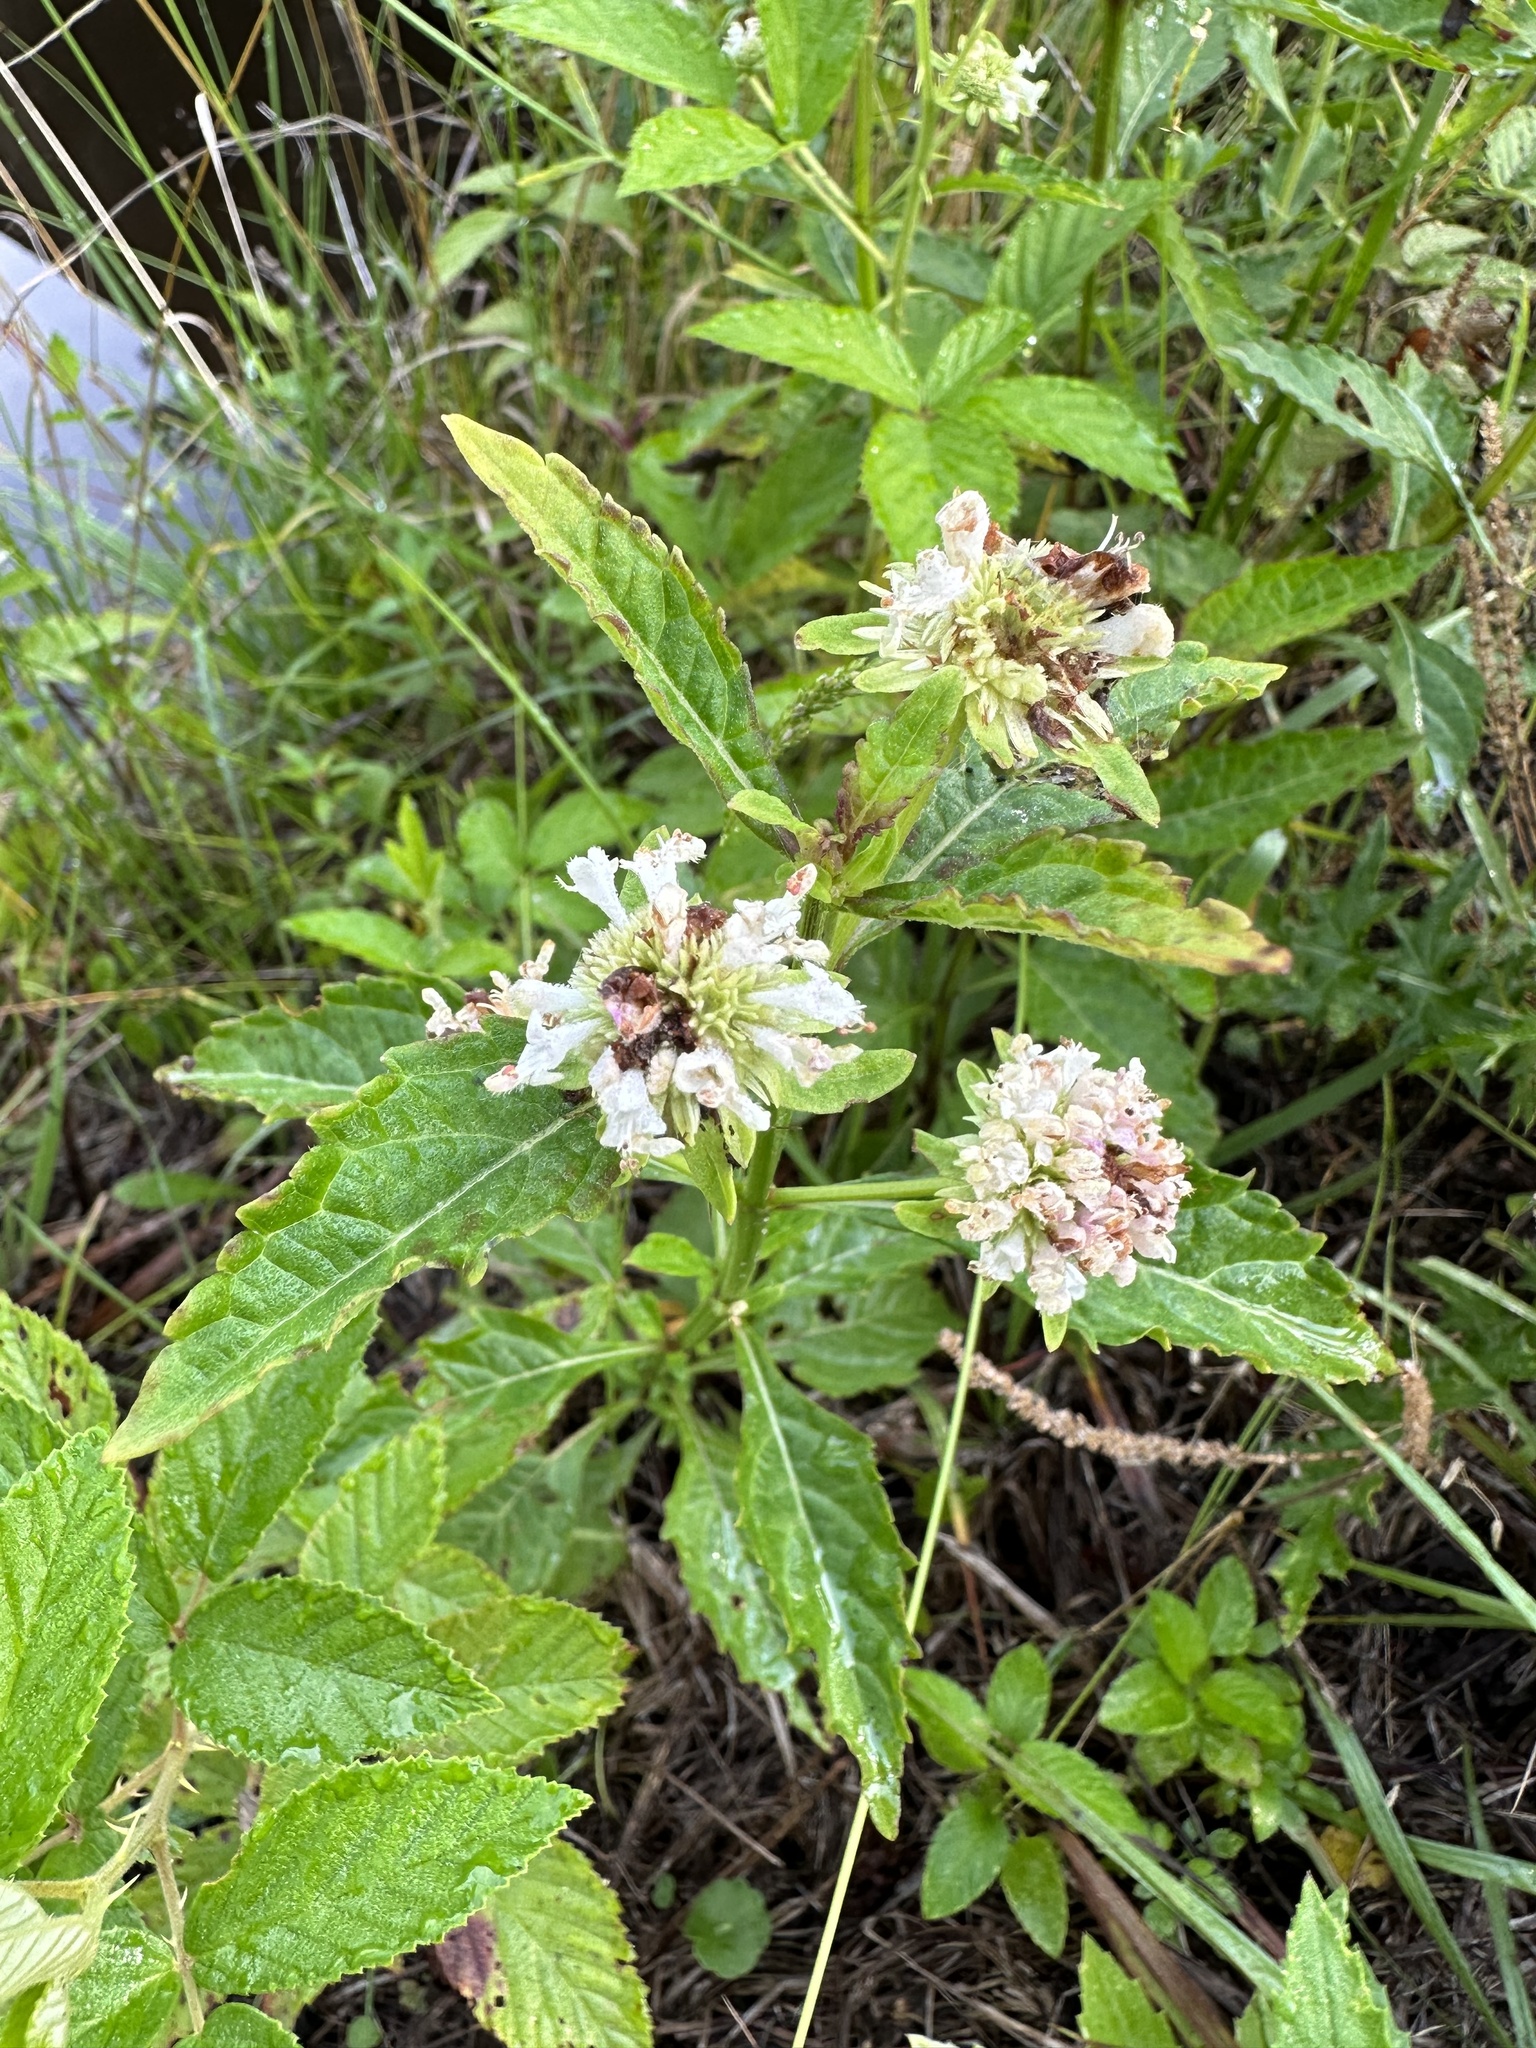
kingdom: Plantae
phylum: Tracheophyta
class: Magnoliopsida
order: Lamiales
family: Lamiaceae
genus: Hyptis
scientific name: Hyptis alata
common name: Cluster bush-mint
